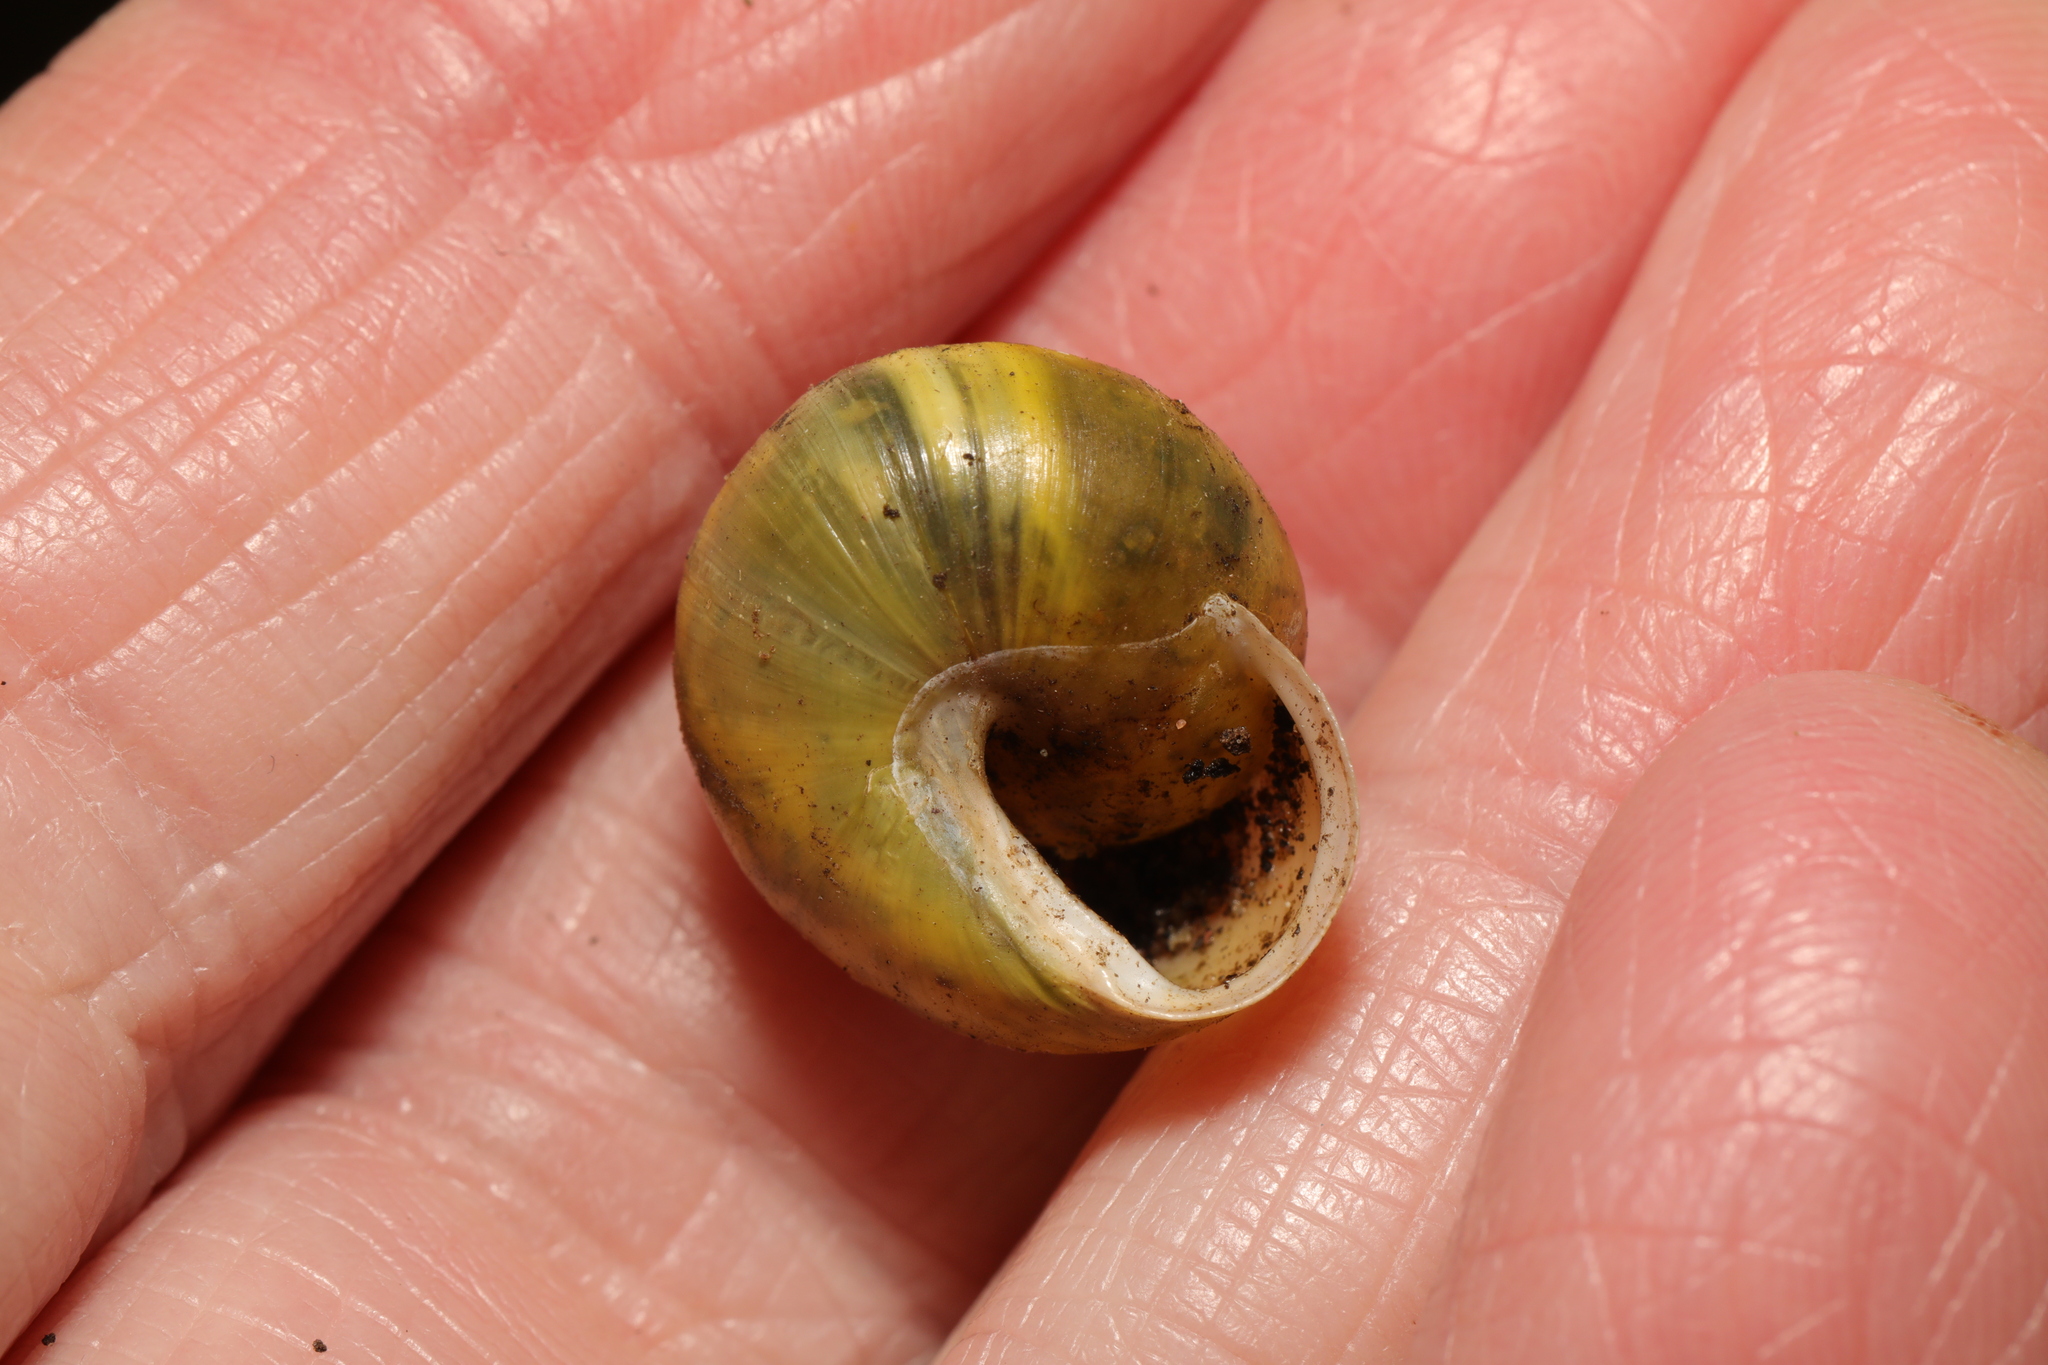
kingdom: Animalia
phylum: Mollusca
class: Gastropoda
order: Stylommatophora
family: Helicidae
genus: Cepaea
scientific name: Cepaea hortensis
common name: White-lip gardensnail
